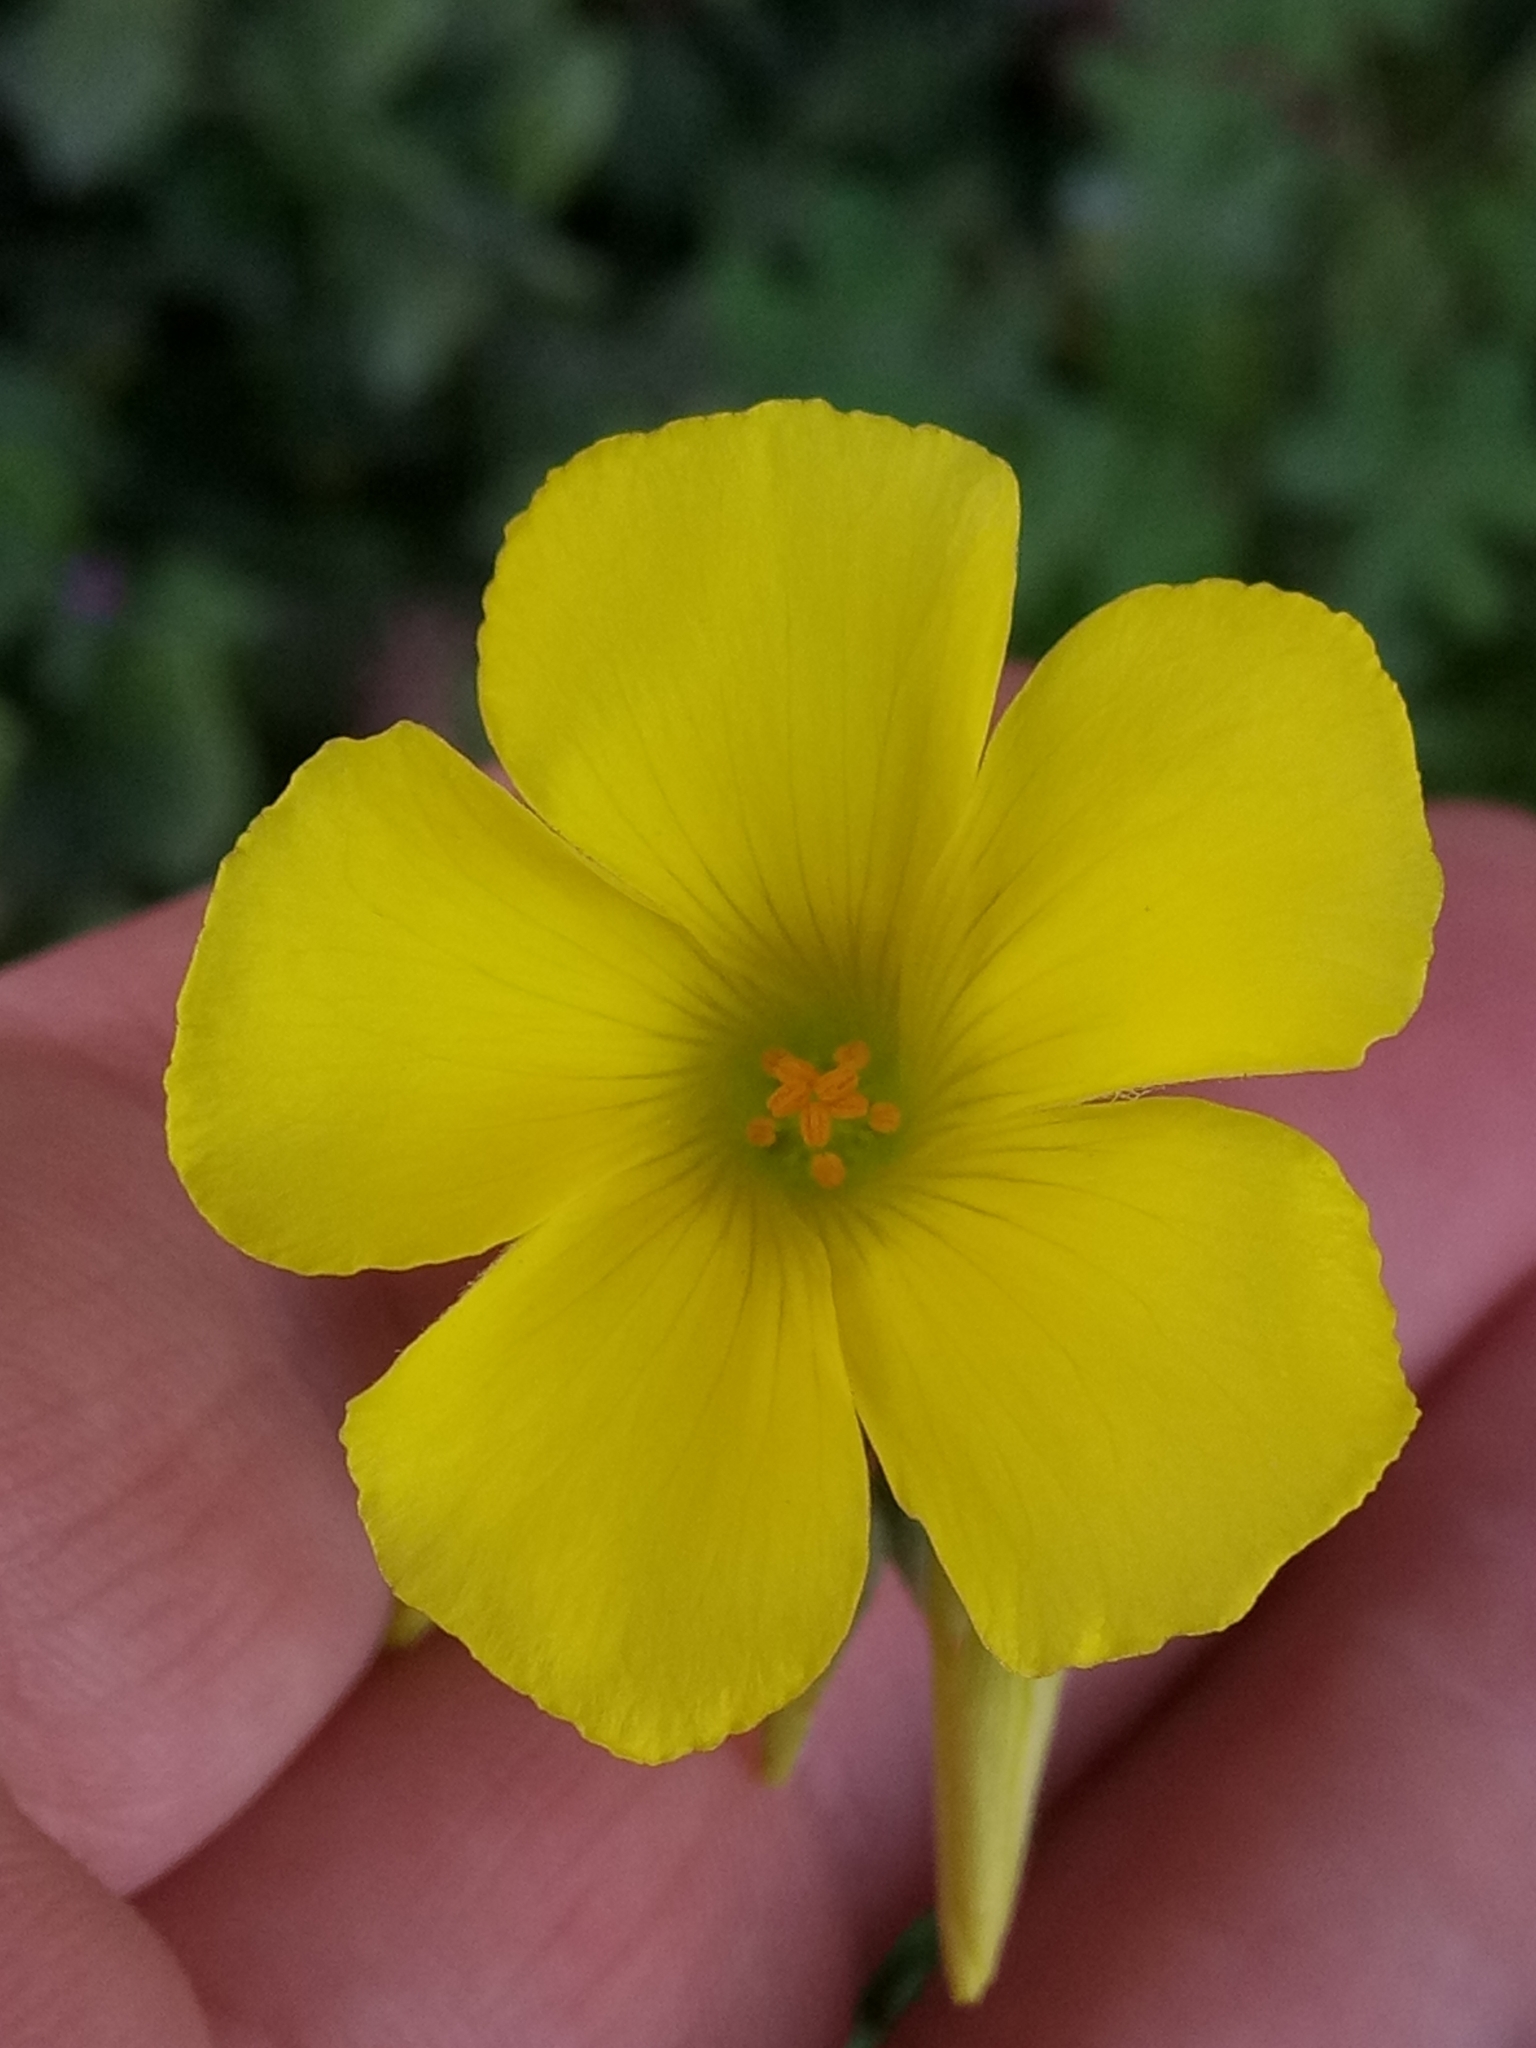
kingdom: Plantae
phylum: Tracheophyta
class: Magnoliopsida
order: Oxalidales
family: Oxalidaceae
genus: Oxalis
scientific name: Oxalis pes-caprae
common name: Bermuda-buttercup
